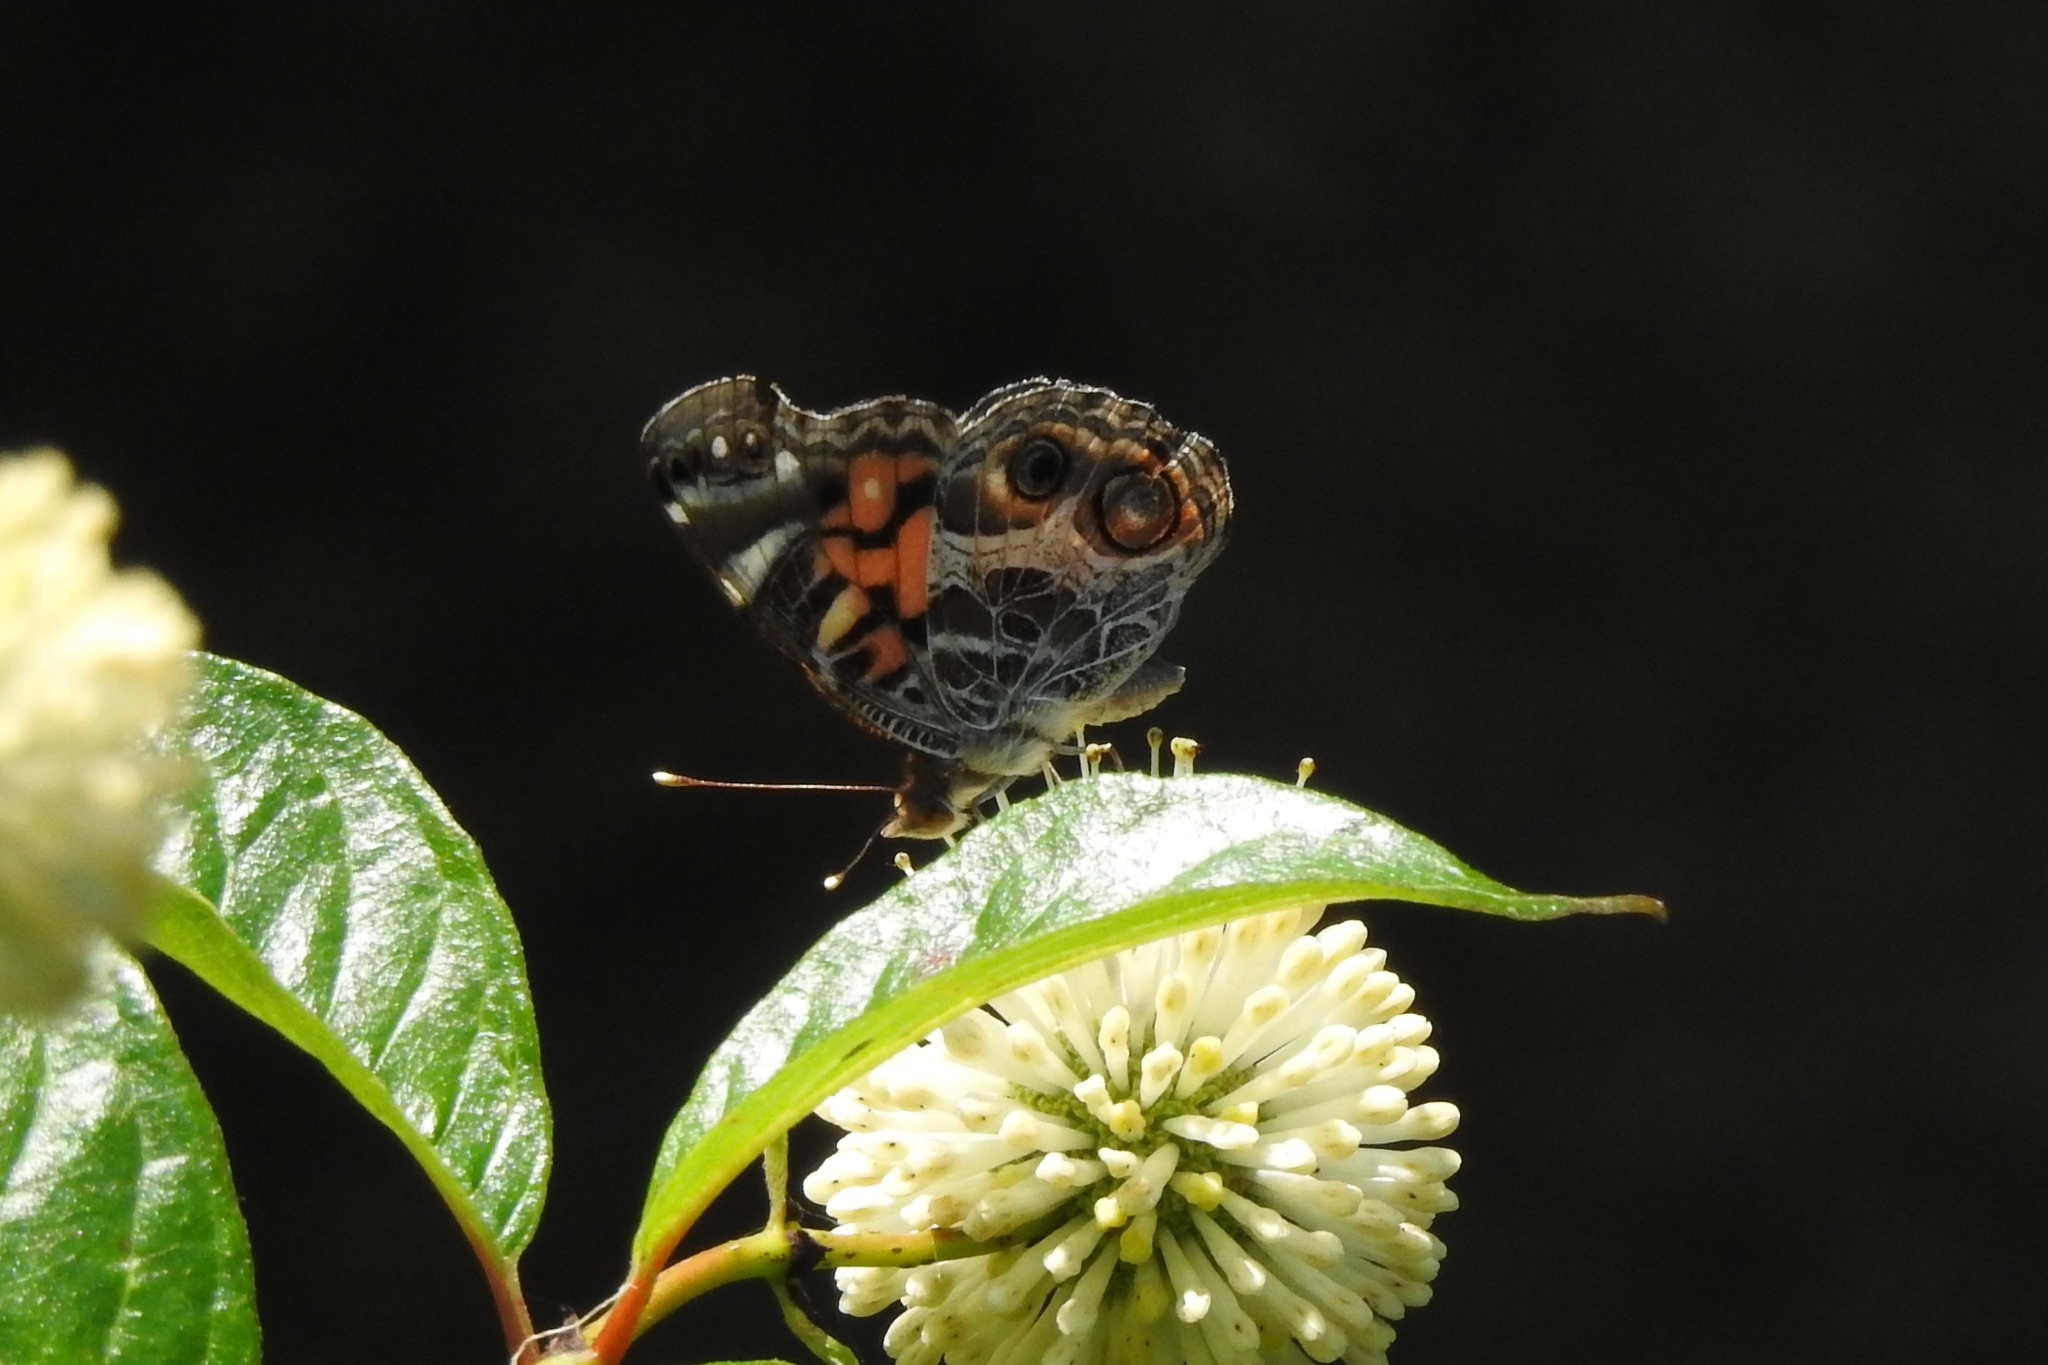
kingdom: Animalia
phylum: Arthropoda
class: Insecta
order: Lepidoptera
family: Nymphalidae
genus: Vanessa
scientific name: Vanessa virginiensis
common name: American lady
